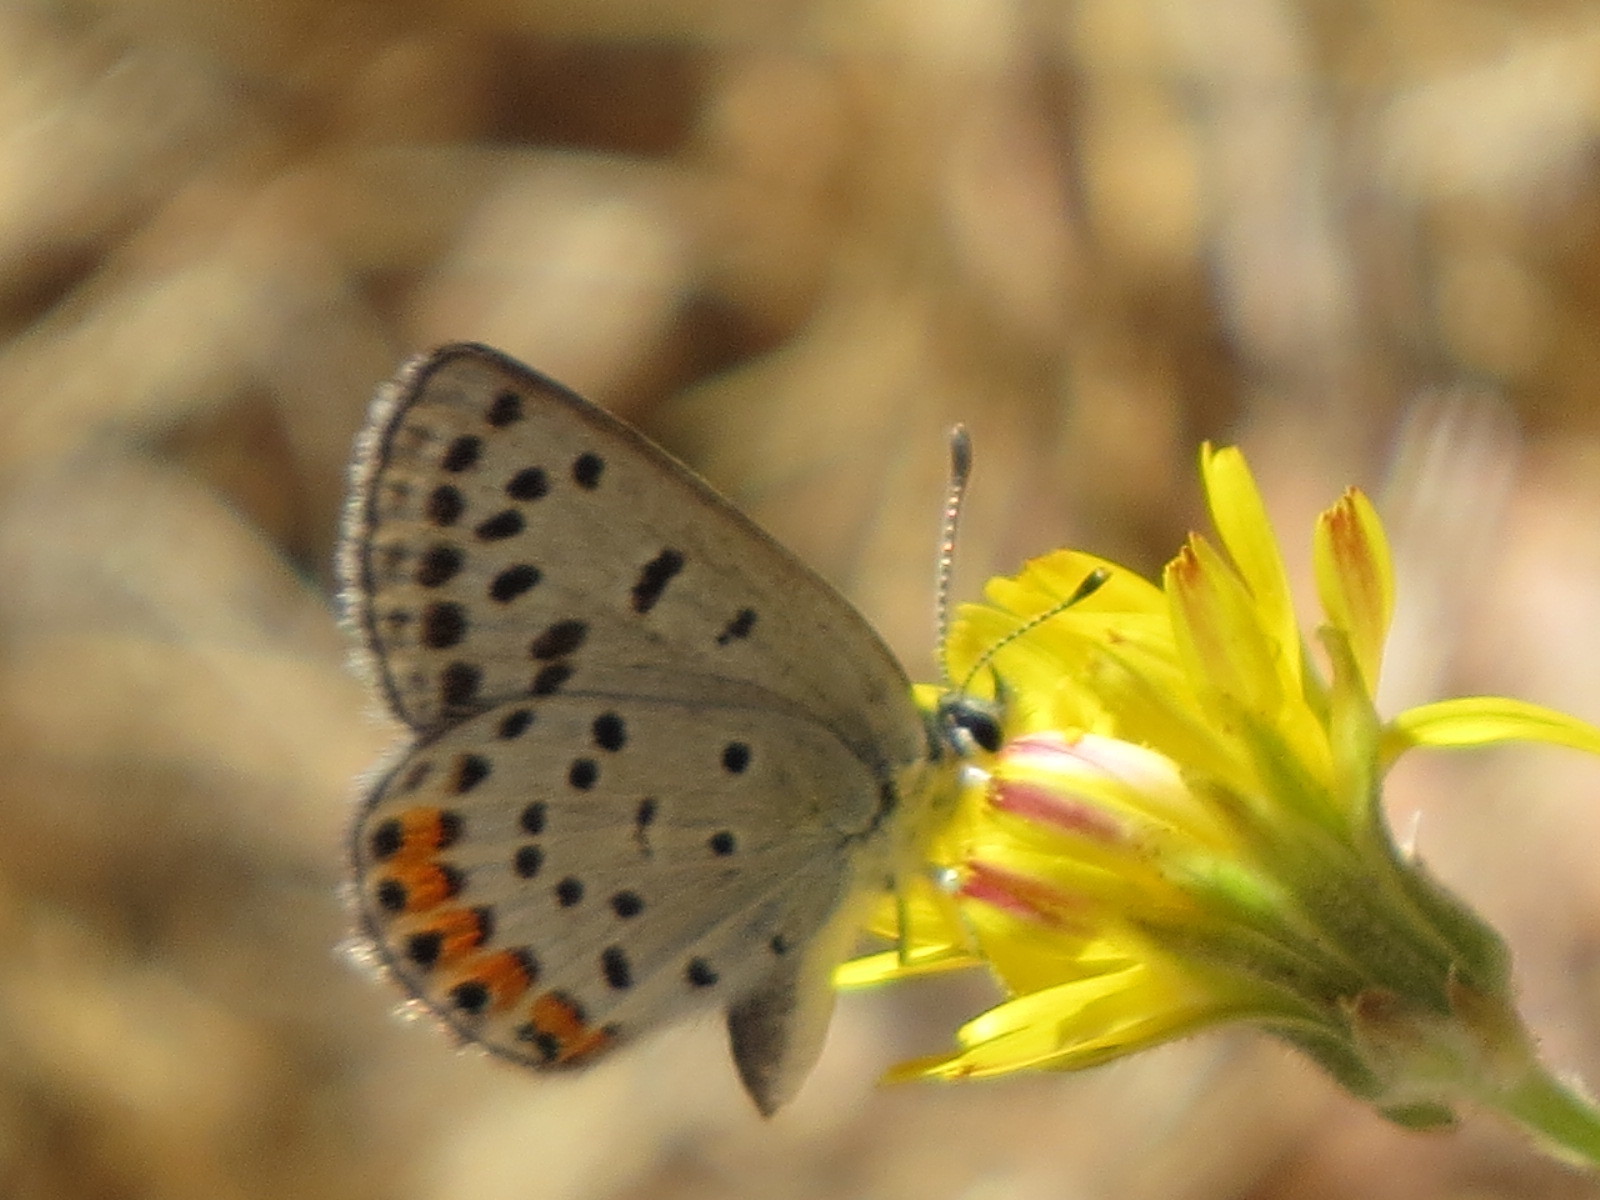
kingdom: Animalia
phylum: Arthropoda
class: Insecta
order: Lepidoptera
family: Lycaenidae
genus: Icaricia
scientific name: Icaricia acmon
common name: Acmon blue
